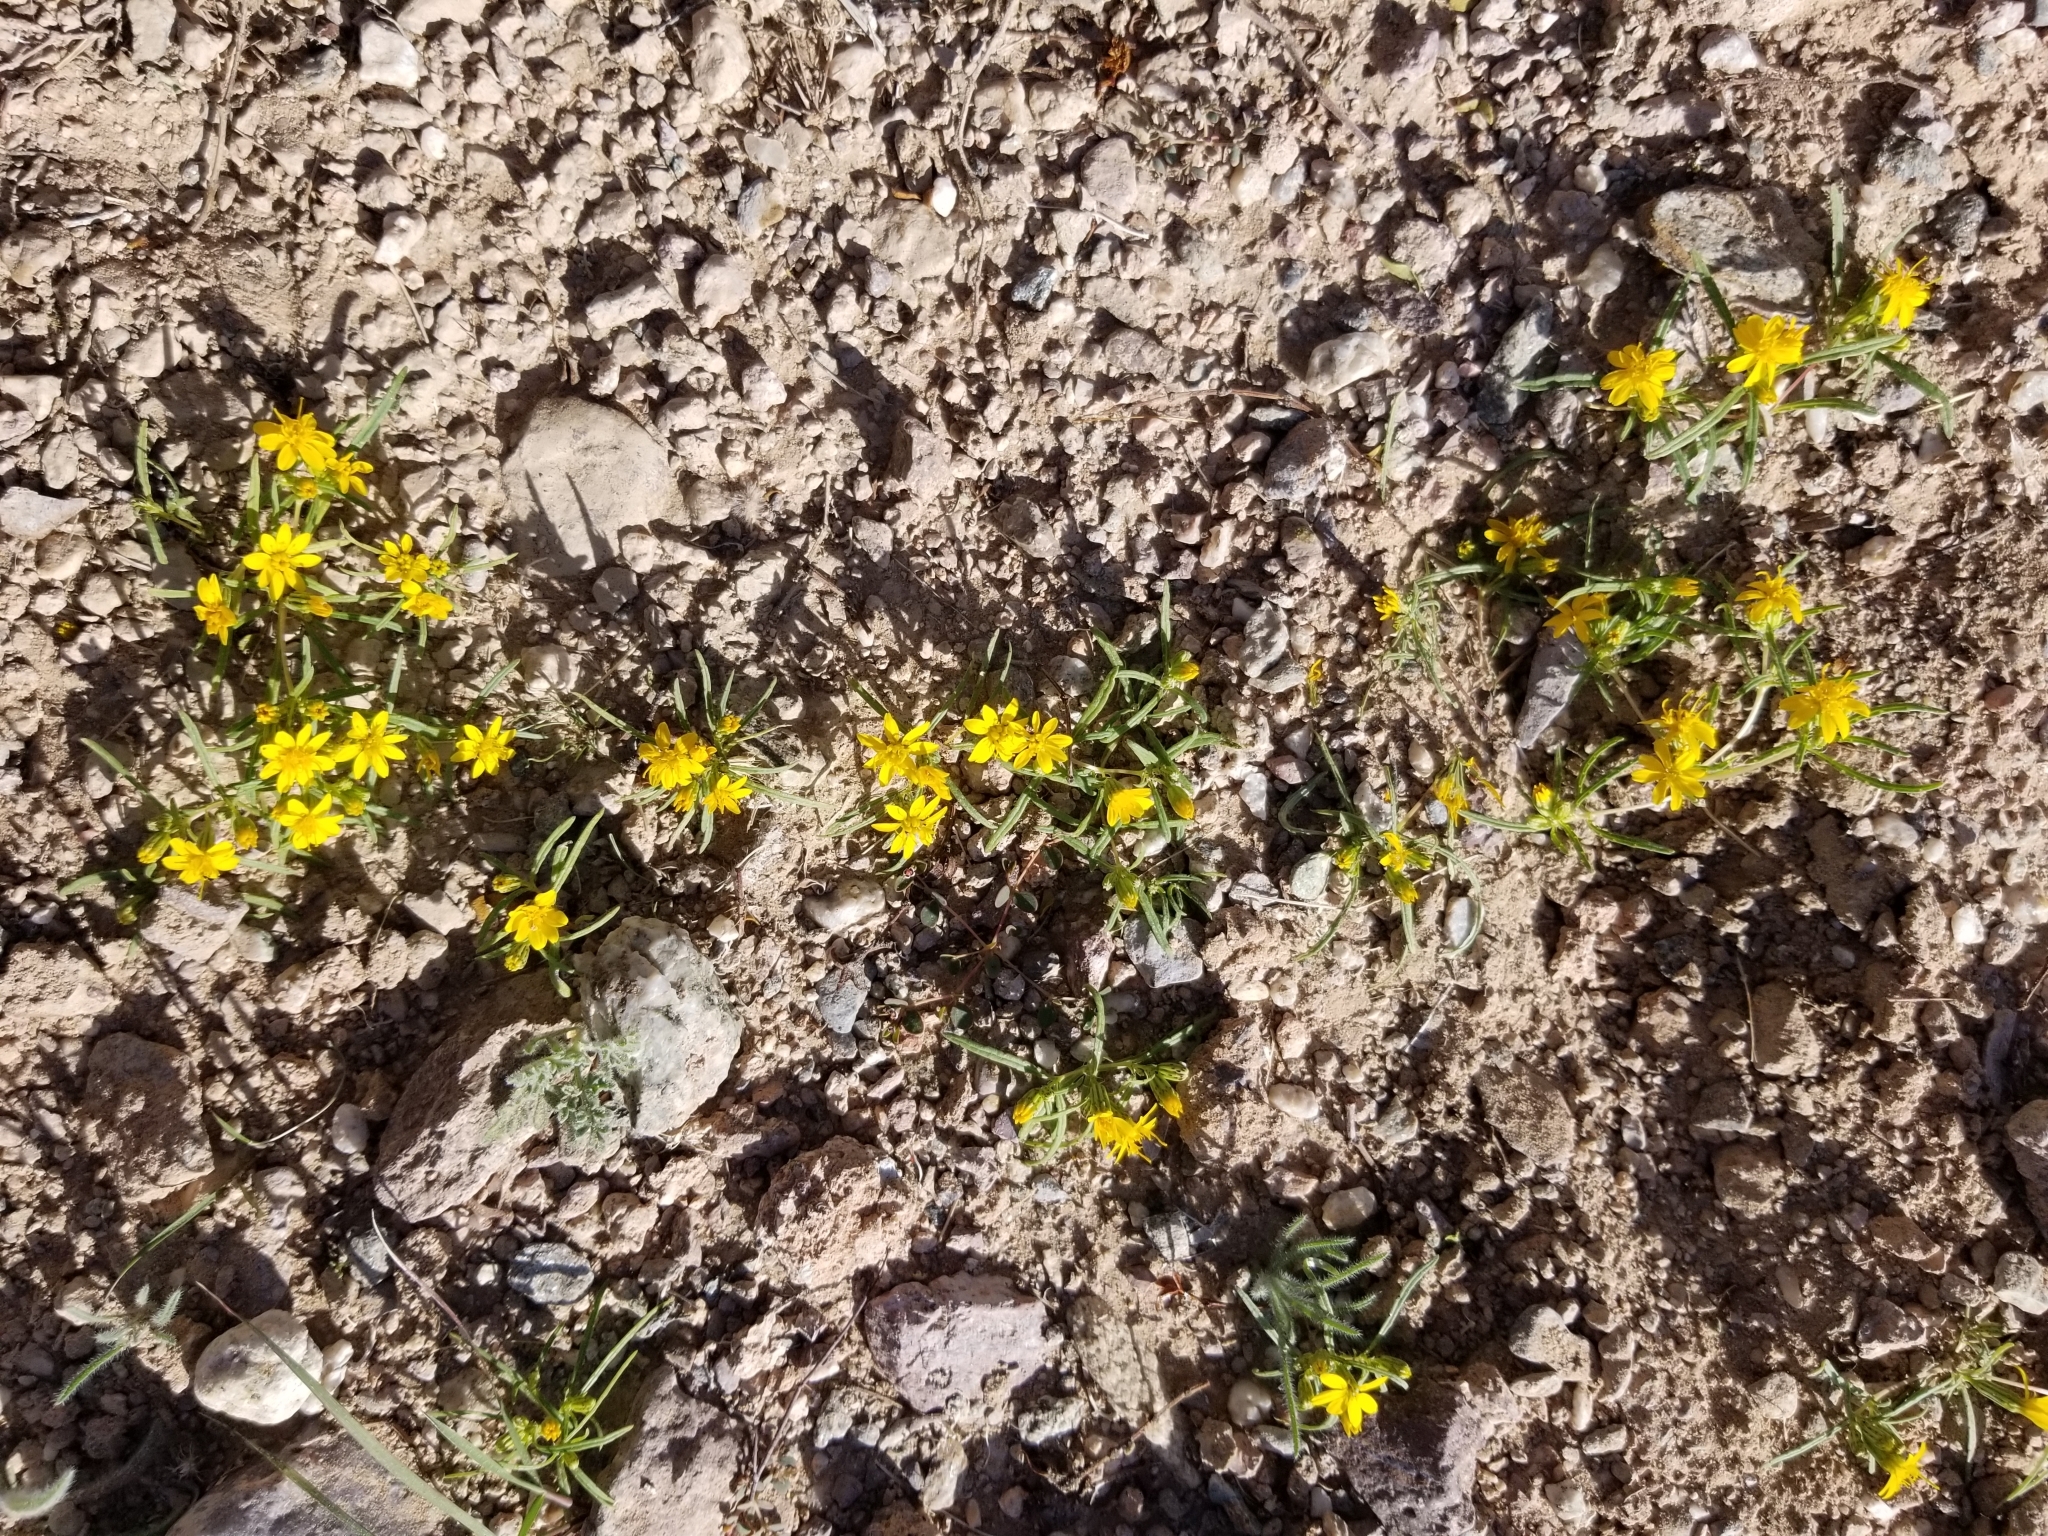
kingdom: Plantae
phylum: Tracheophyta
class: Magnoliopsida
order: Asterales
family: Asteraceae
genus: Pectis
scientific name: Pectis papposa
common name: Many-bristle chinchweed
